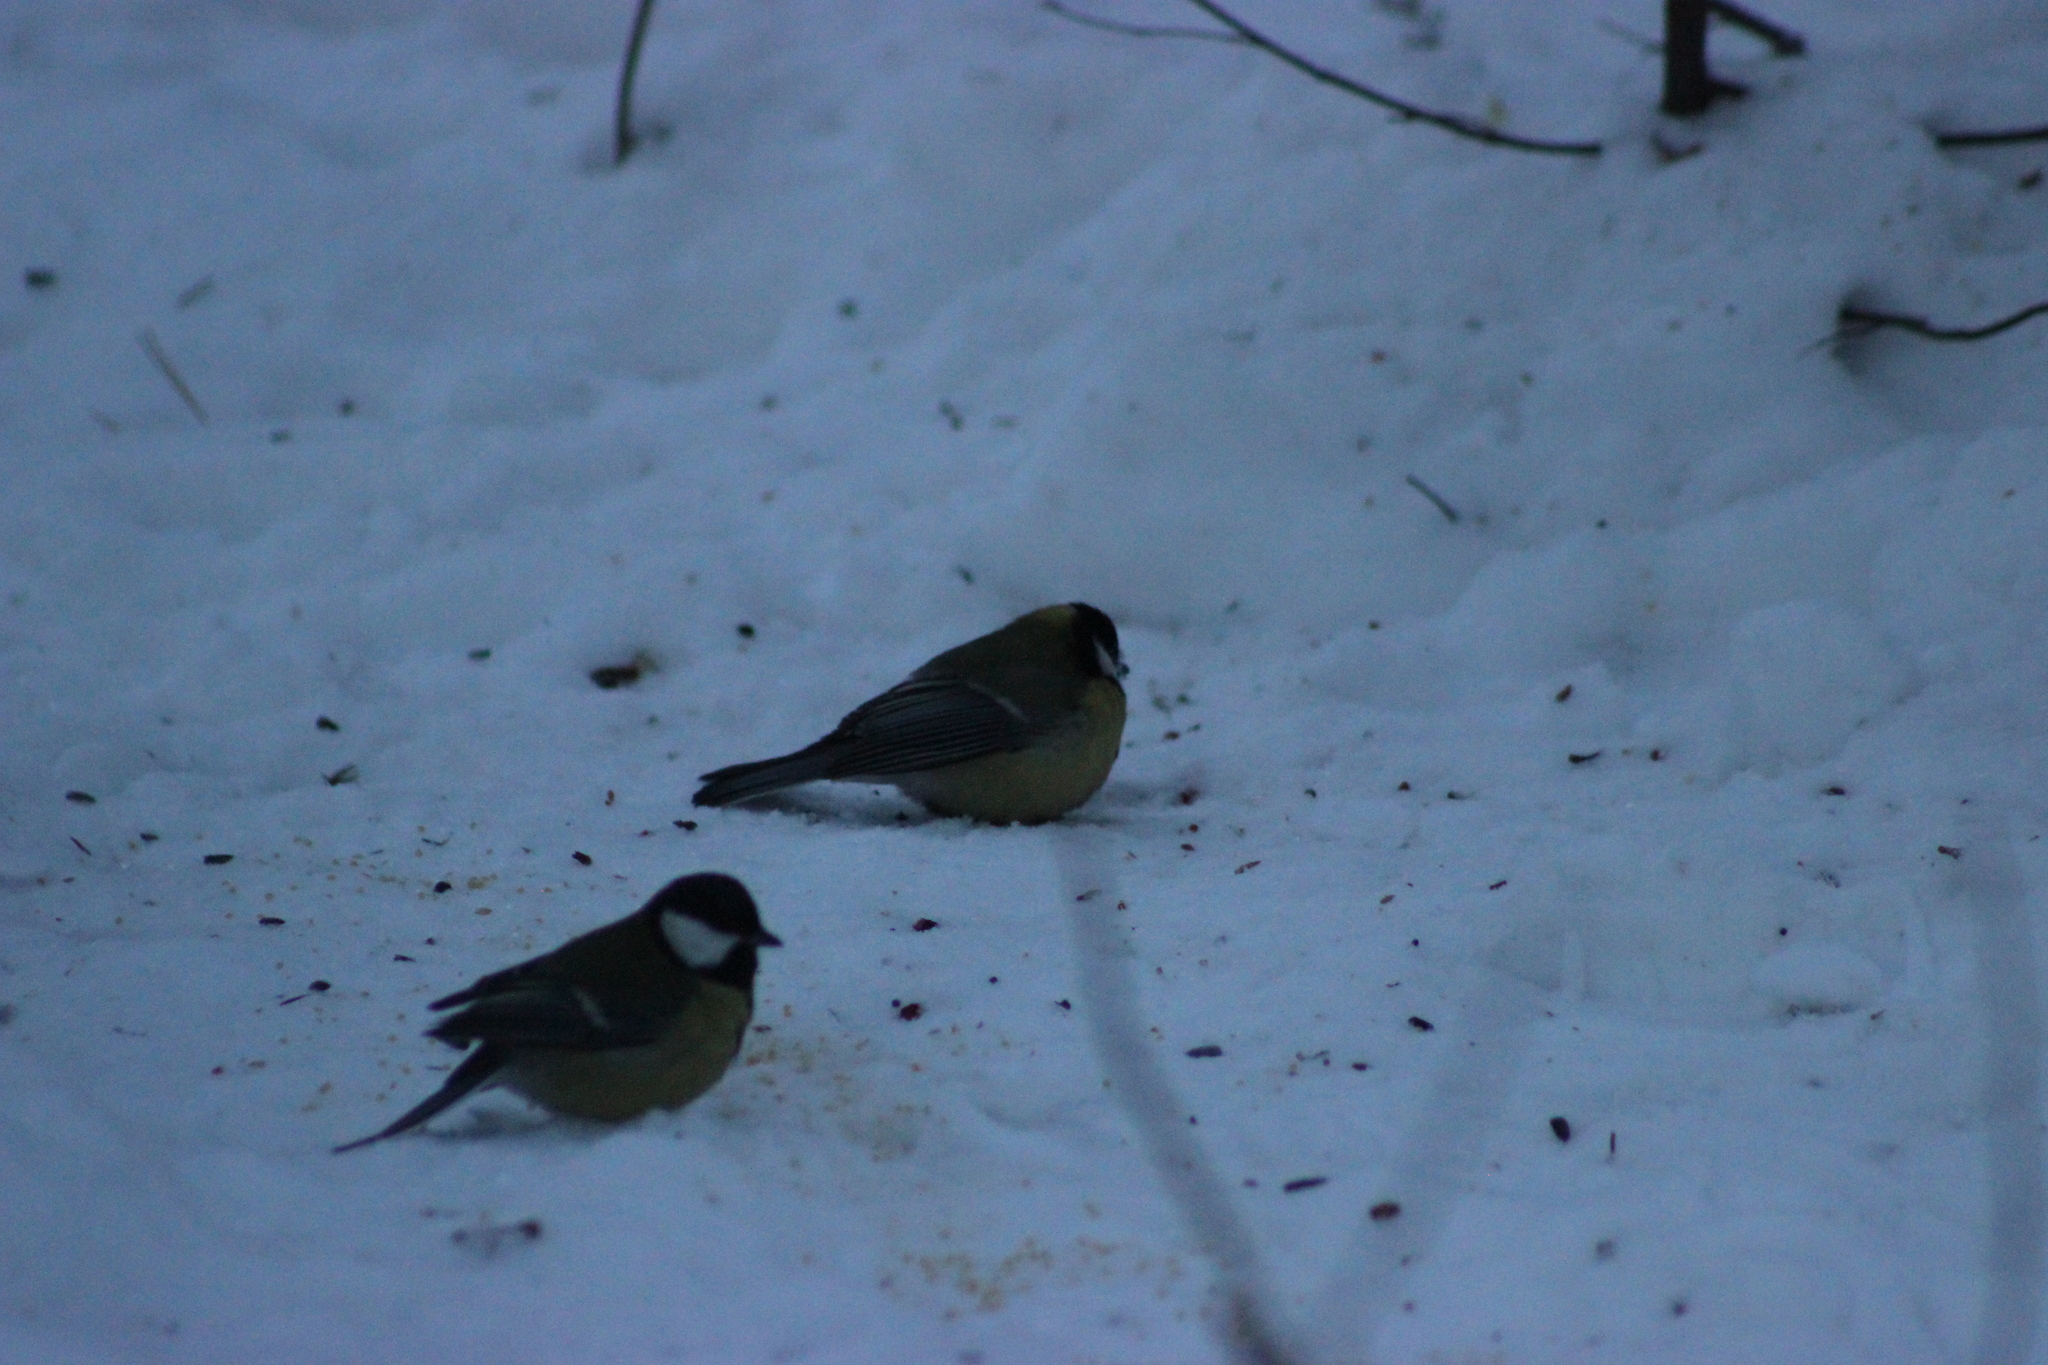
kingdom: Animalia
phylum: Chordata
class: Aves
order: Passeriformes
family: Paridae
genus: Parus
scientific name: Parus major
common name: Great tit
